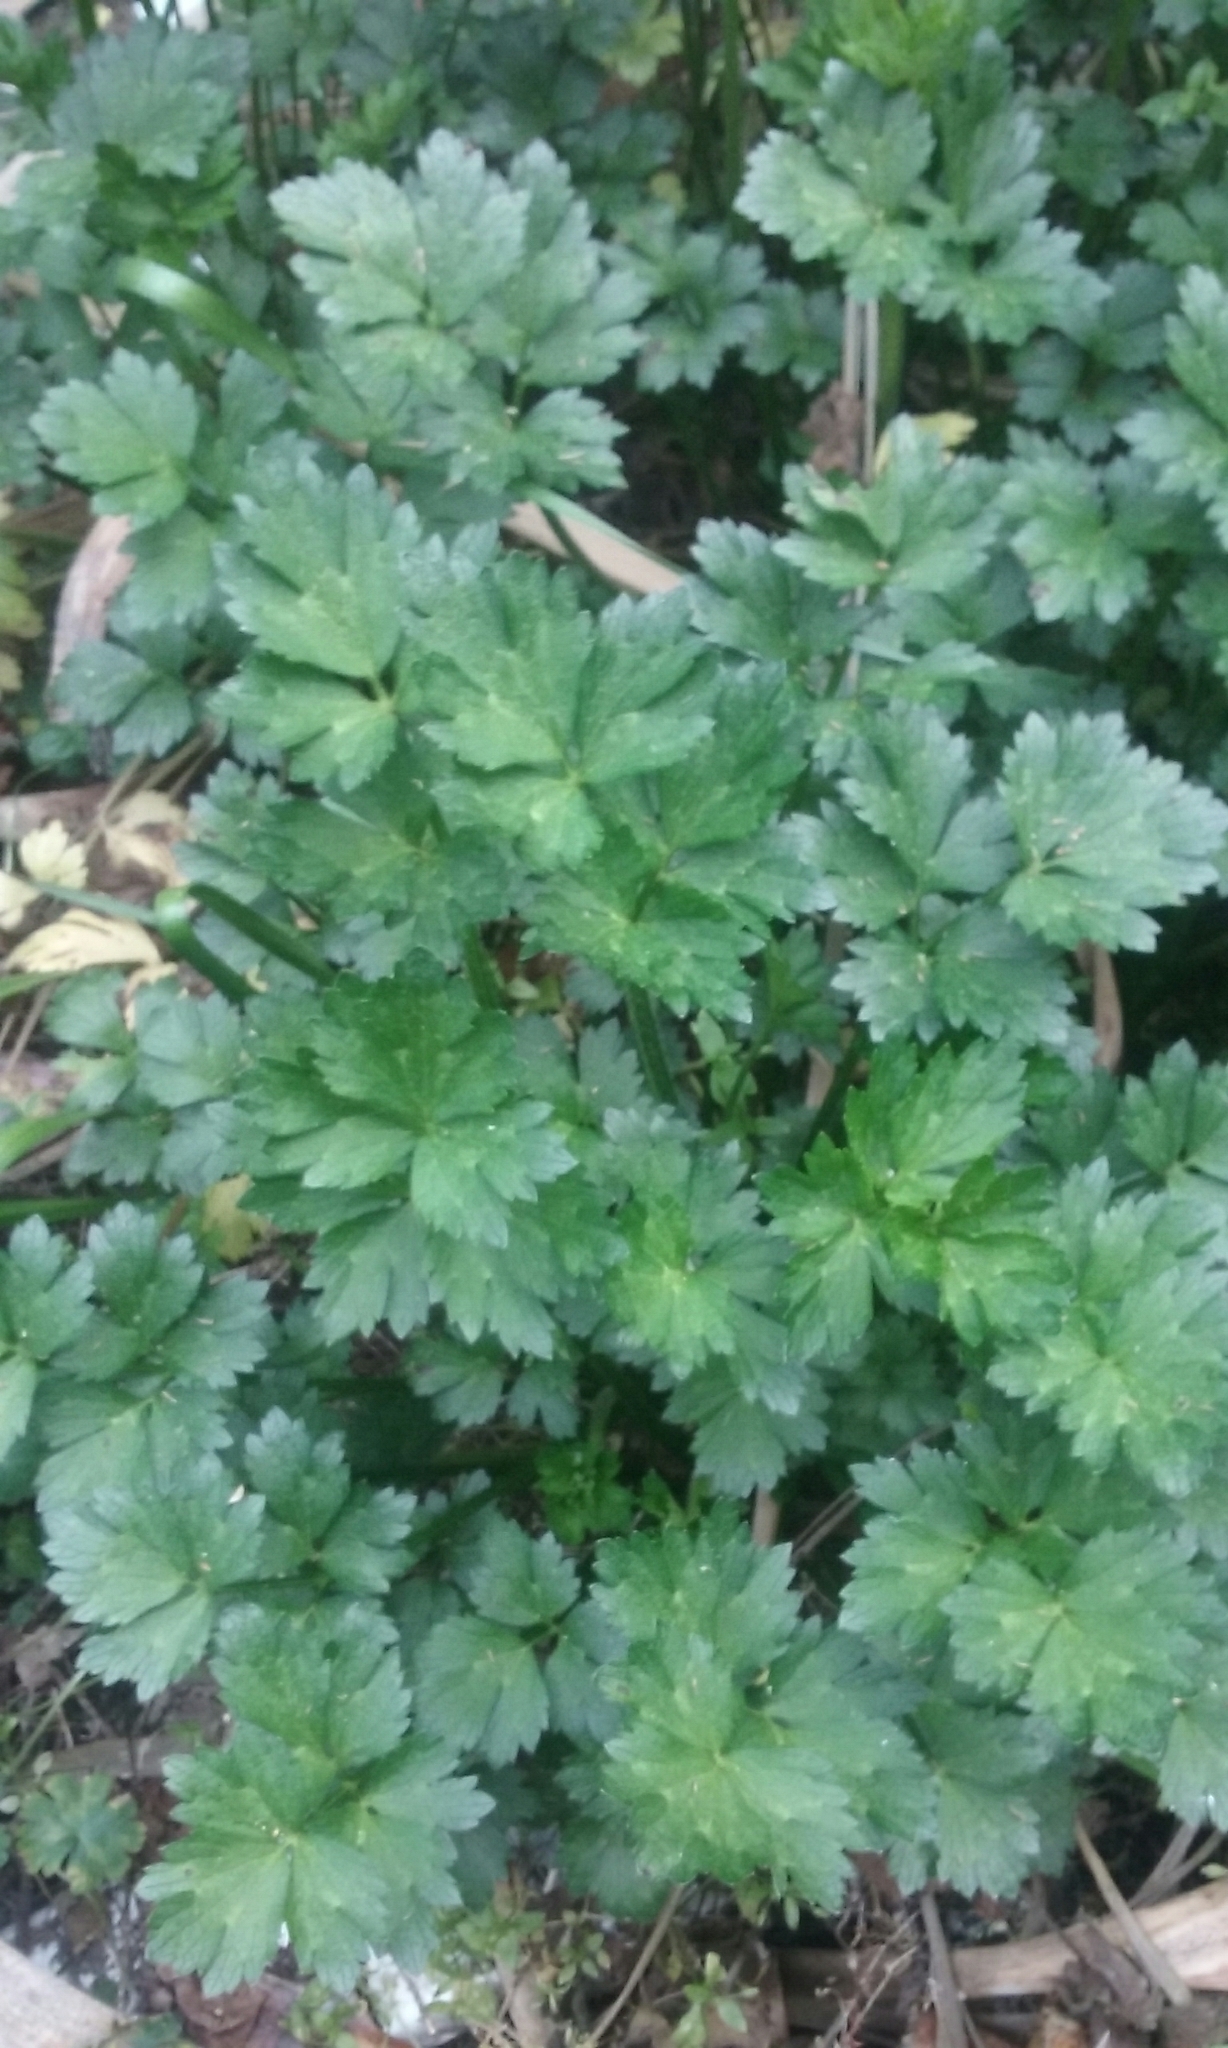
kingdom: Plantae
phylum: Tracheophyta
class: Magnoliopsida
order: Ranunculales
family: Ranunculaceae
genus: Ranunculus
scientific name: Ranunculus repens
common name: Creeping buttercup
